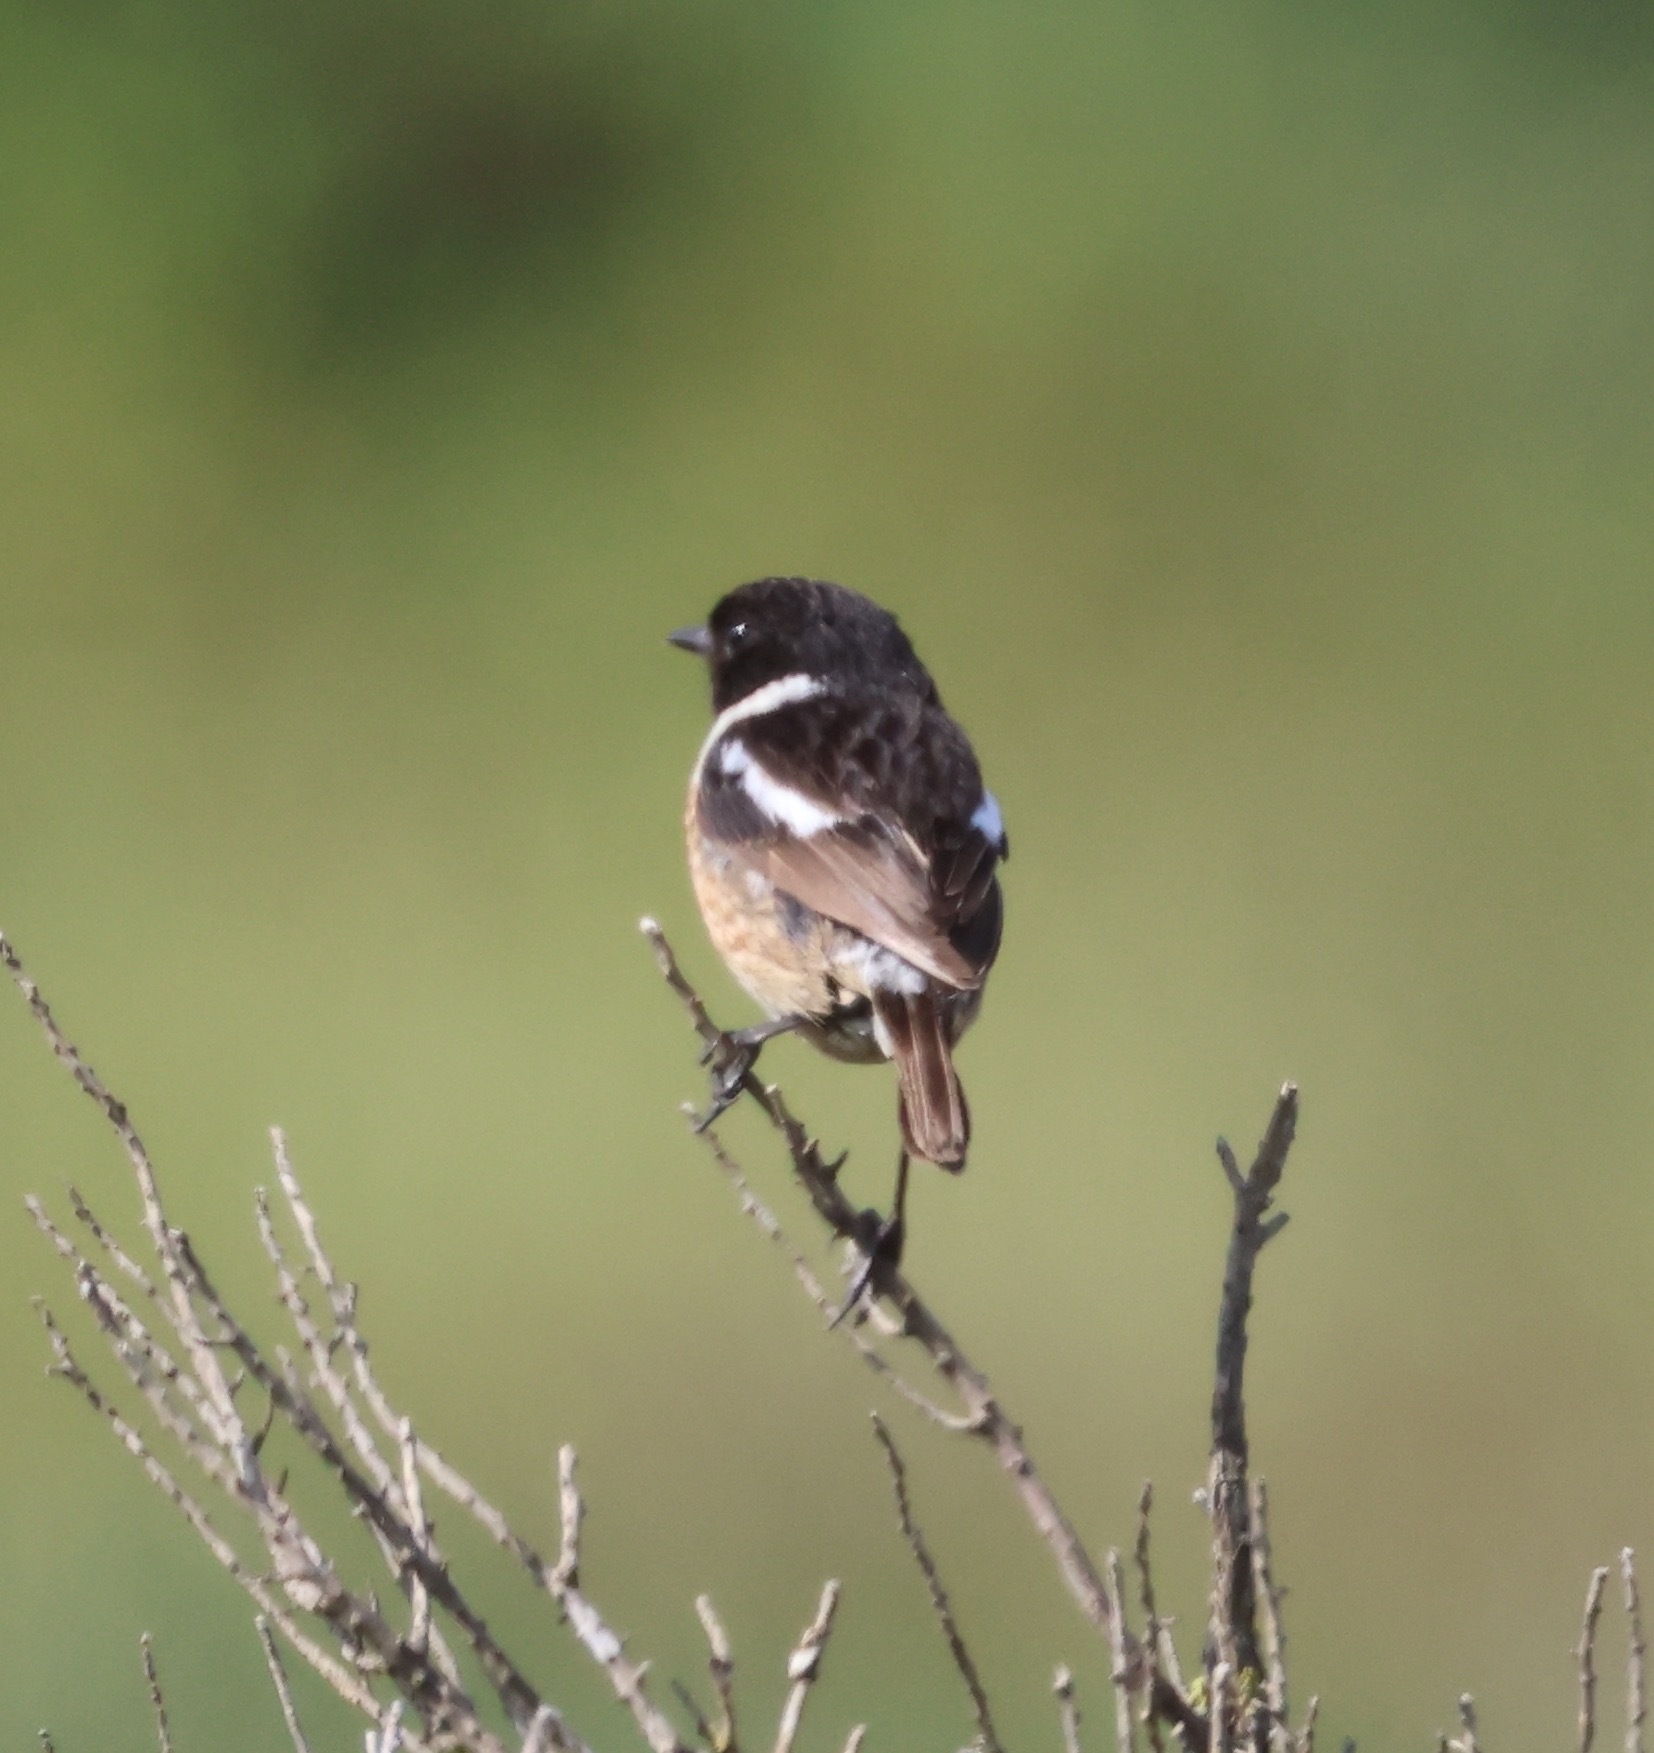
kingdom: Animalia
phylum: Chordata
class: Aves
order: Passeriformes
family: Muscicapidae
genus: Saxicola
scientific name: Saxicola rubicola
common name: European stonechat
